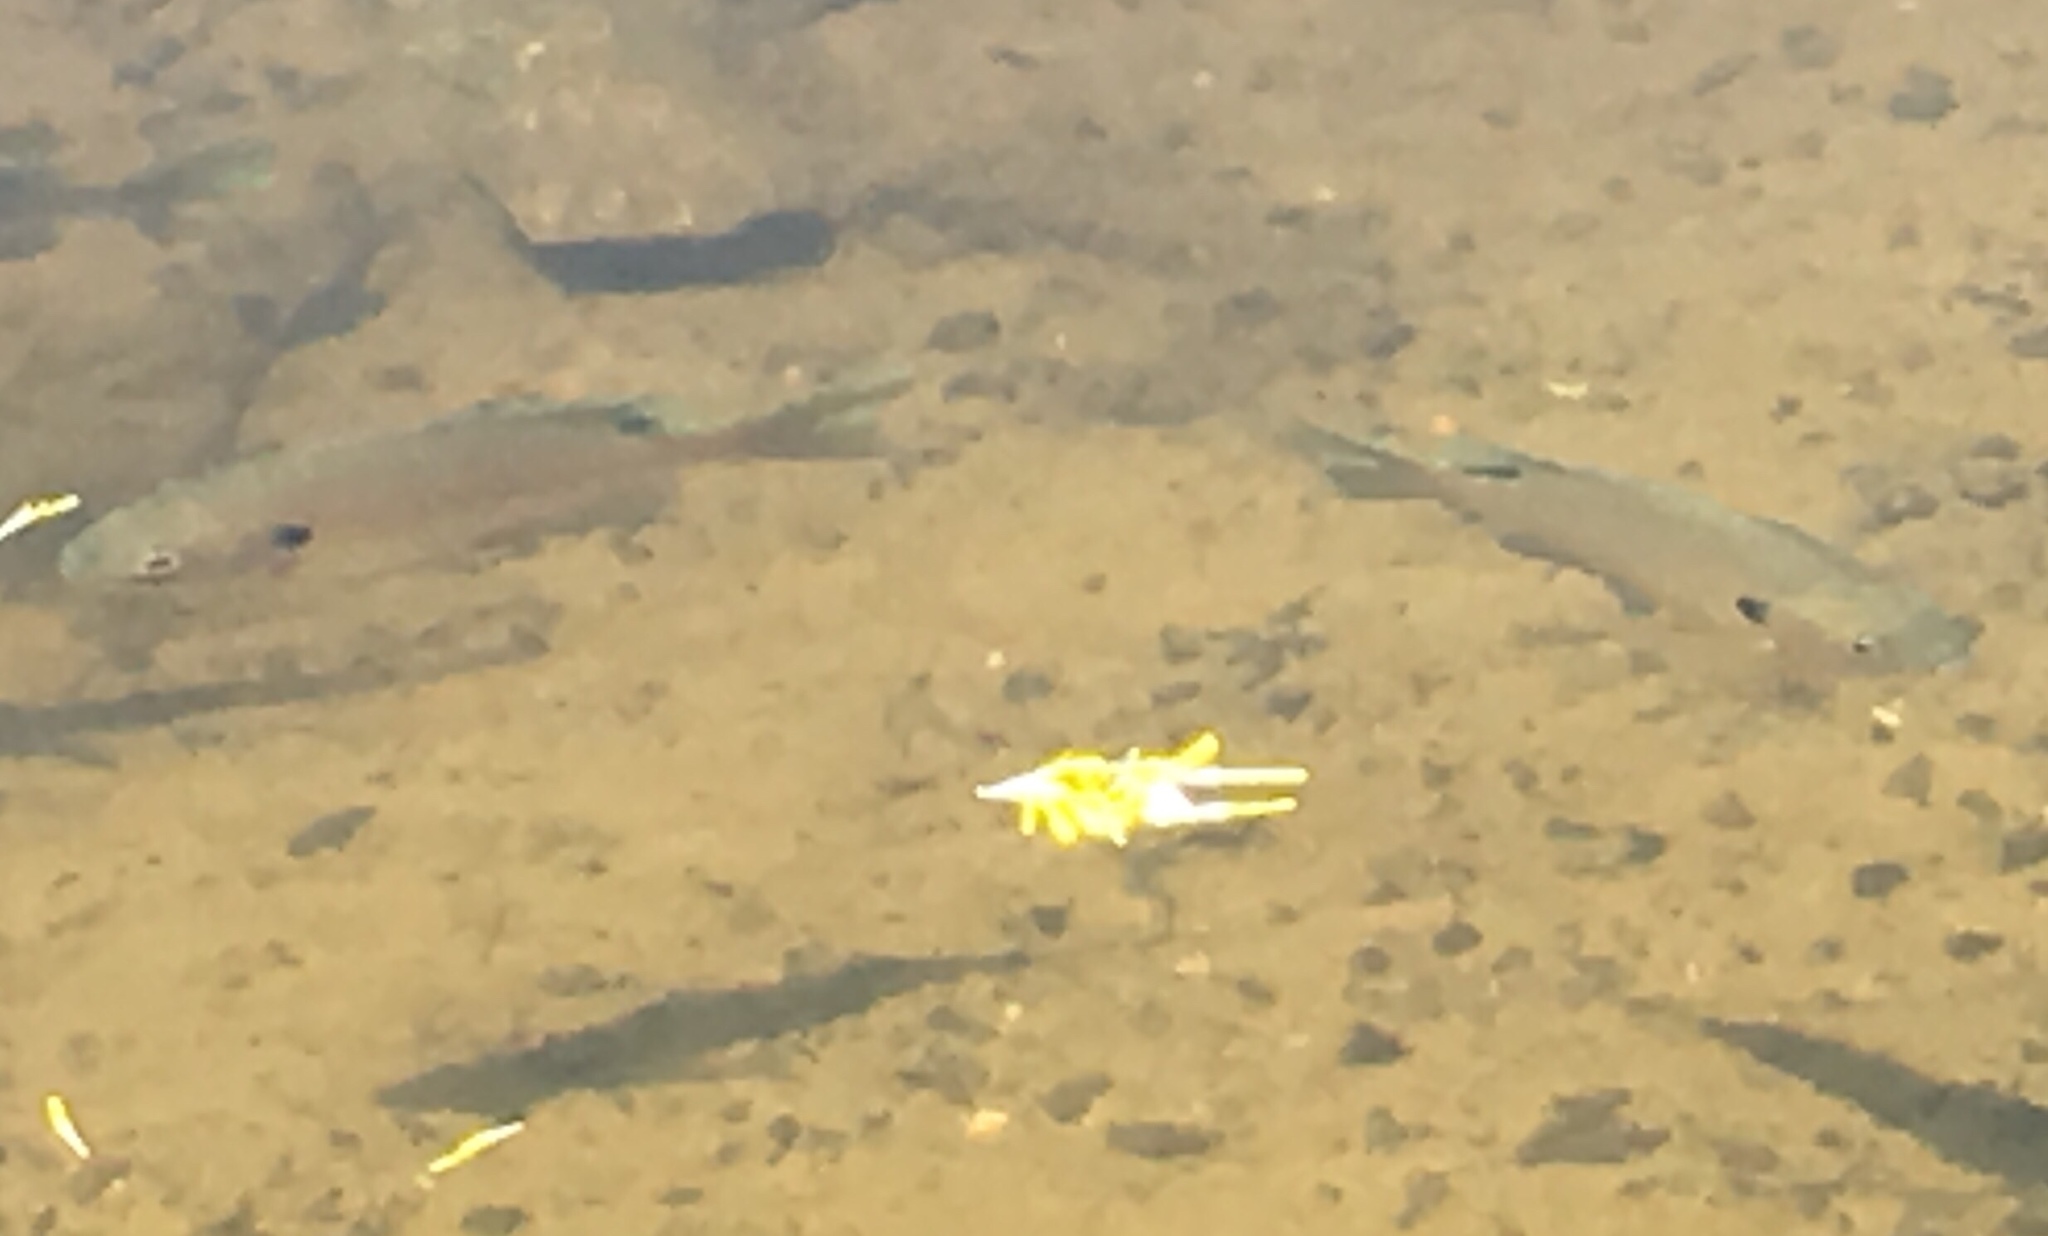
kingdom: Animalia
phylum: Chordata
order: Perciformes
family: Centrarchidae
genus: Lepomis
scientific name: Lepomis macrochirus
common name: Bluegill
